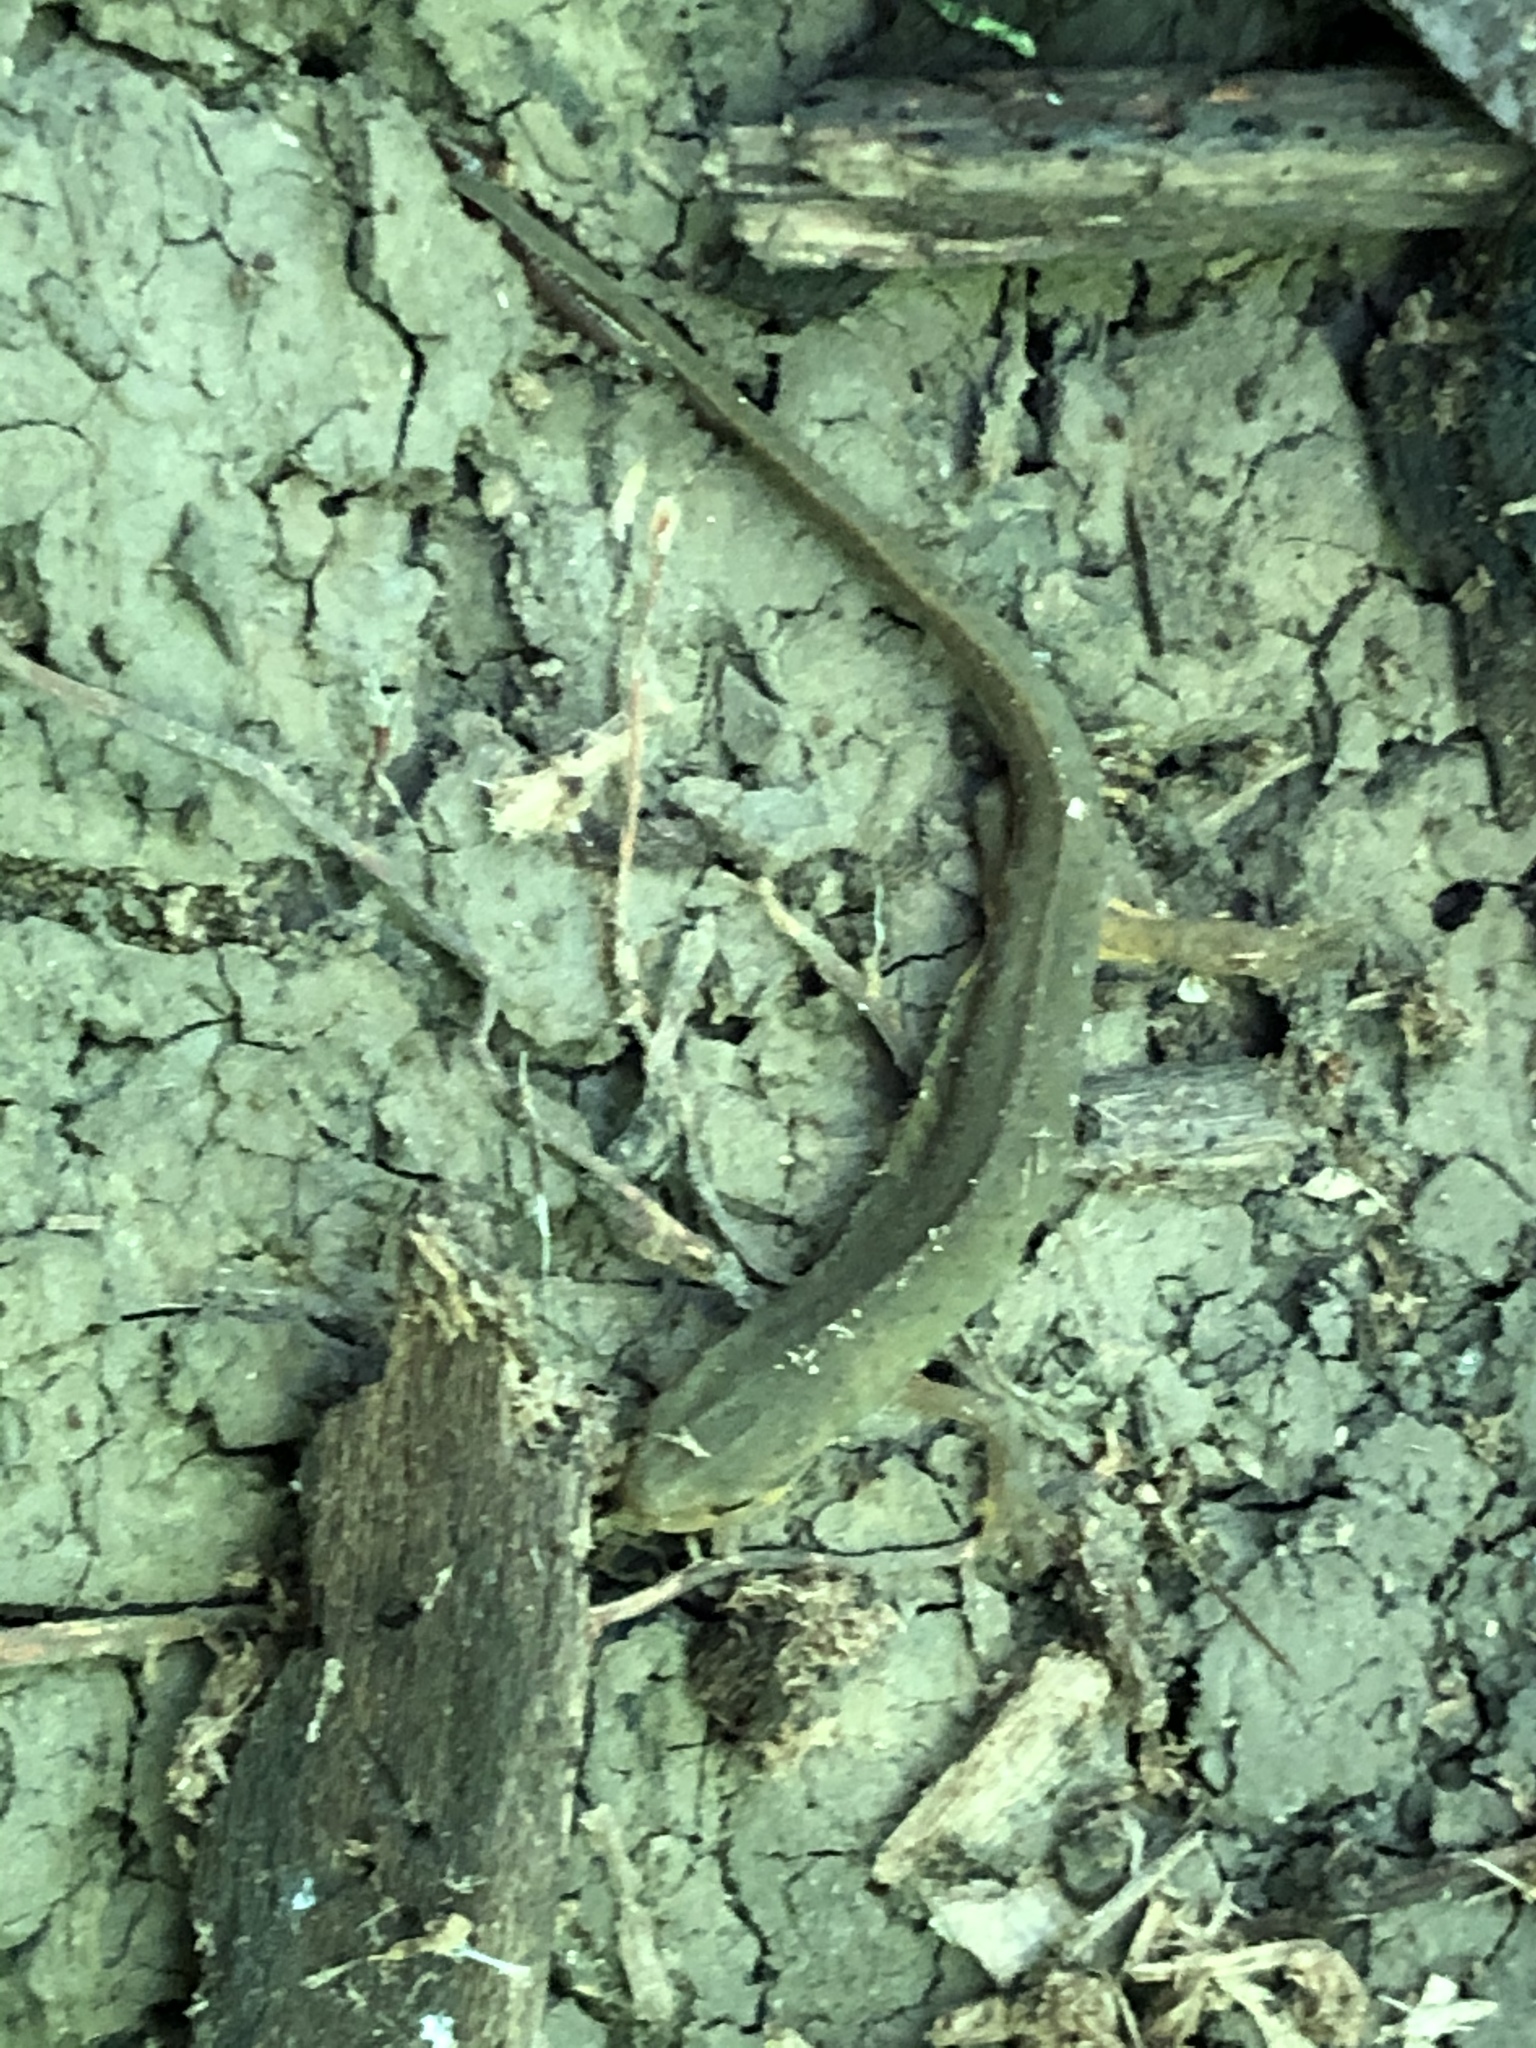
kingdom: Animalia
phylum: Chordata
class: Amphibia
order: Caudata
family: Salamandridae
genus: Notophthalmus
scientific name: Notophthalmus viridescens
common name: Eastern newt
